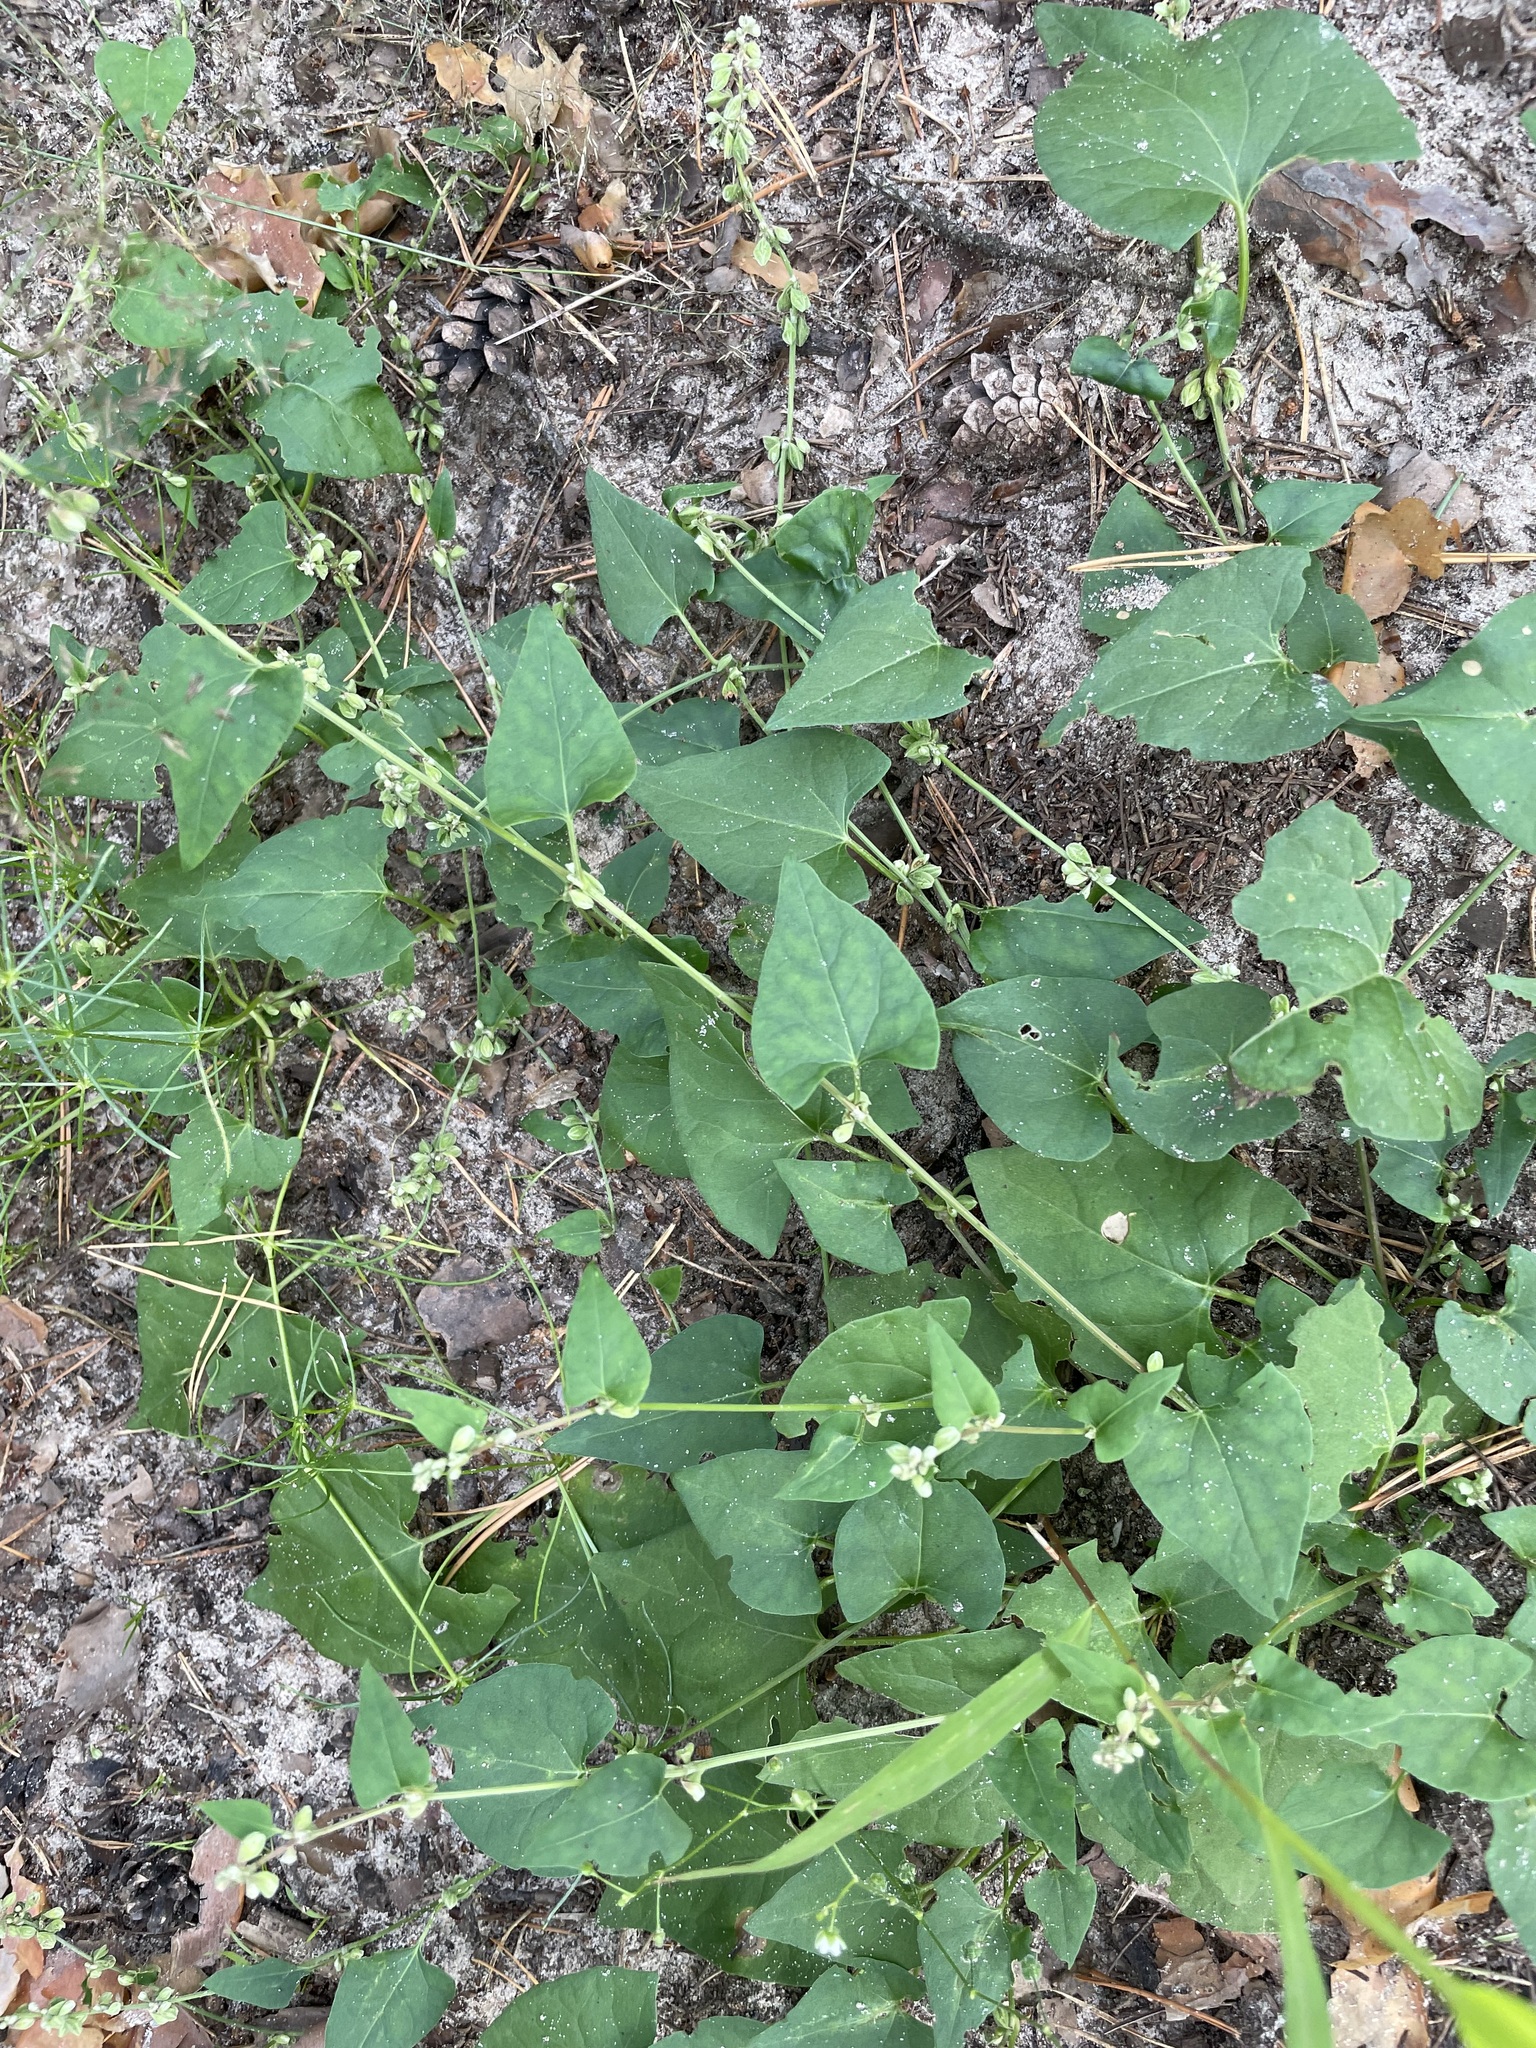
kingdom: Plantae
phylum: Tracheophyta
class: Magnoliopsida
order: Caryophyllales
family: Polygonaceae
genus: Fallopia
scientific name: Fallopia convolvulus
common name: Black bindweed
